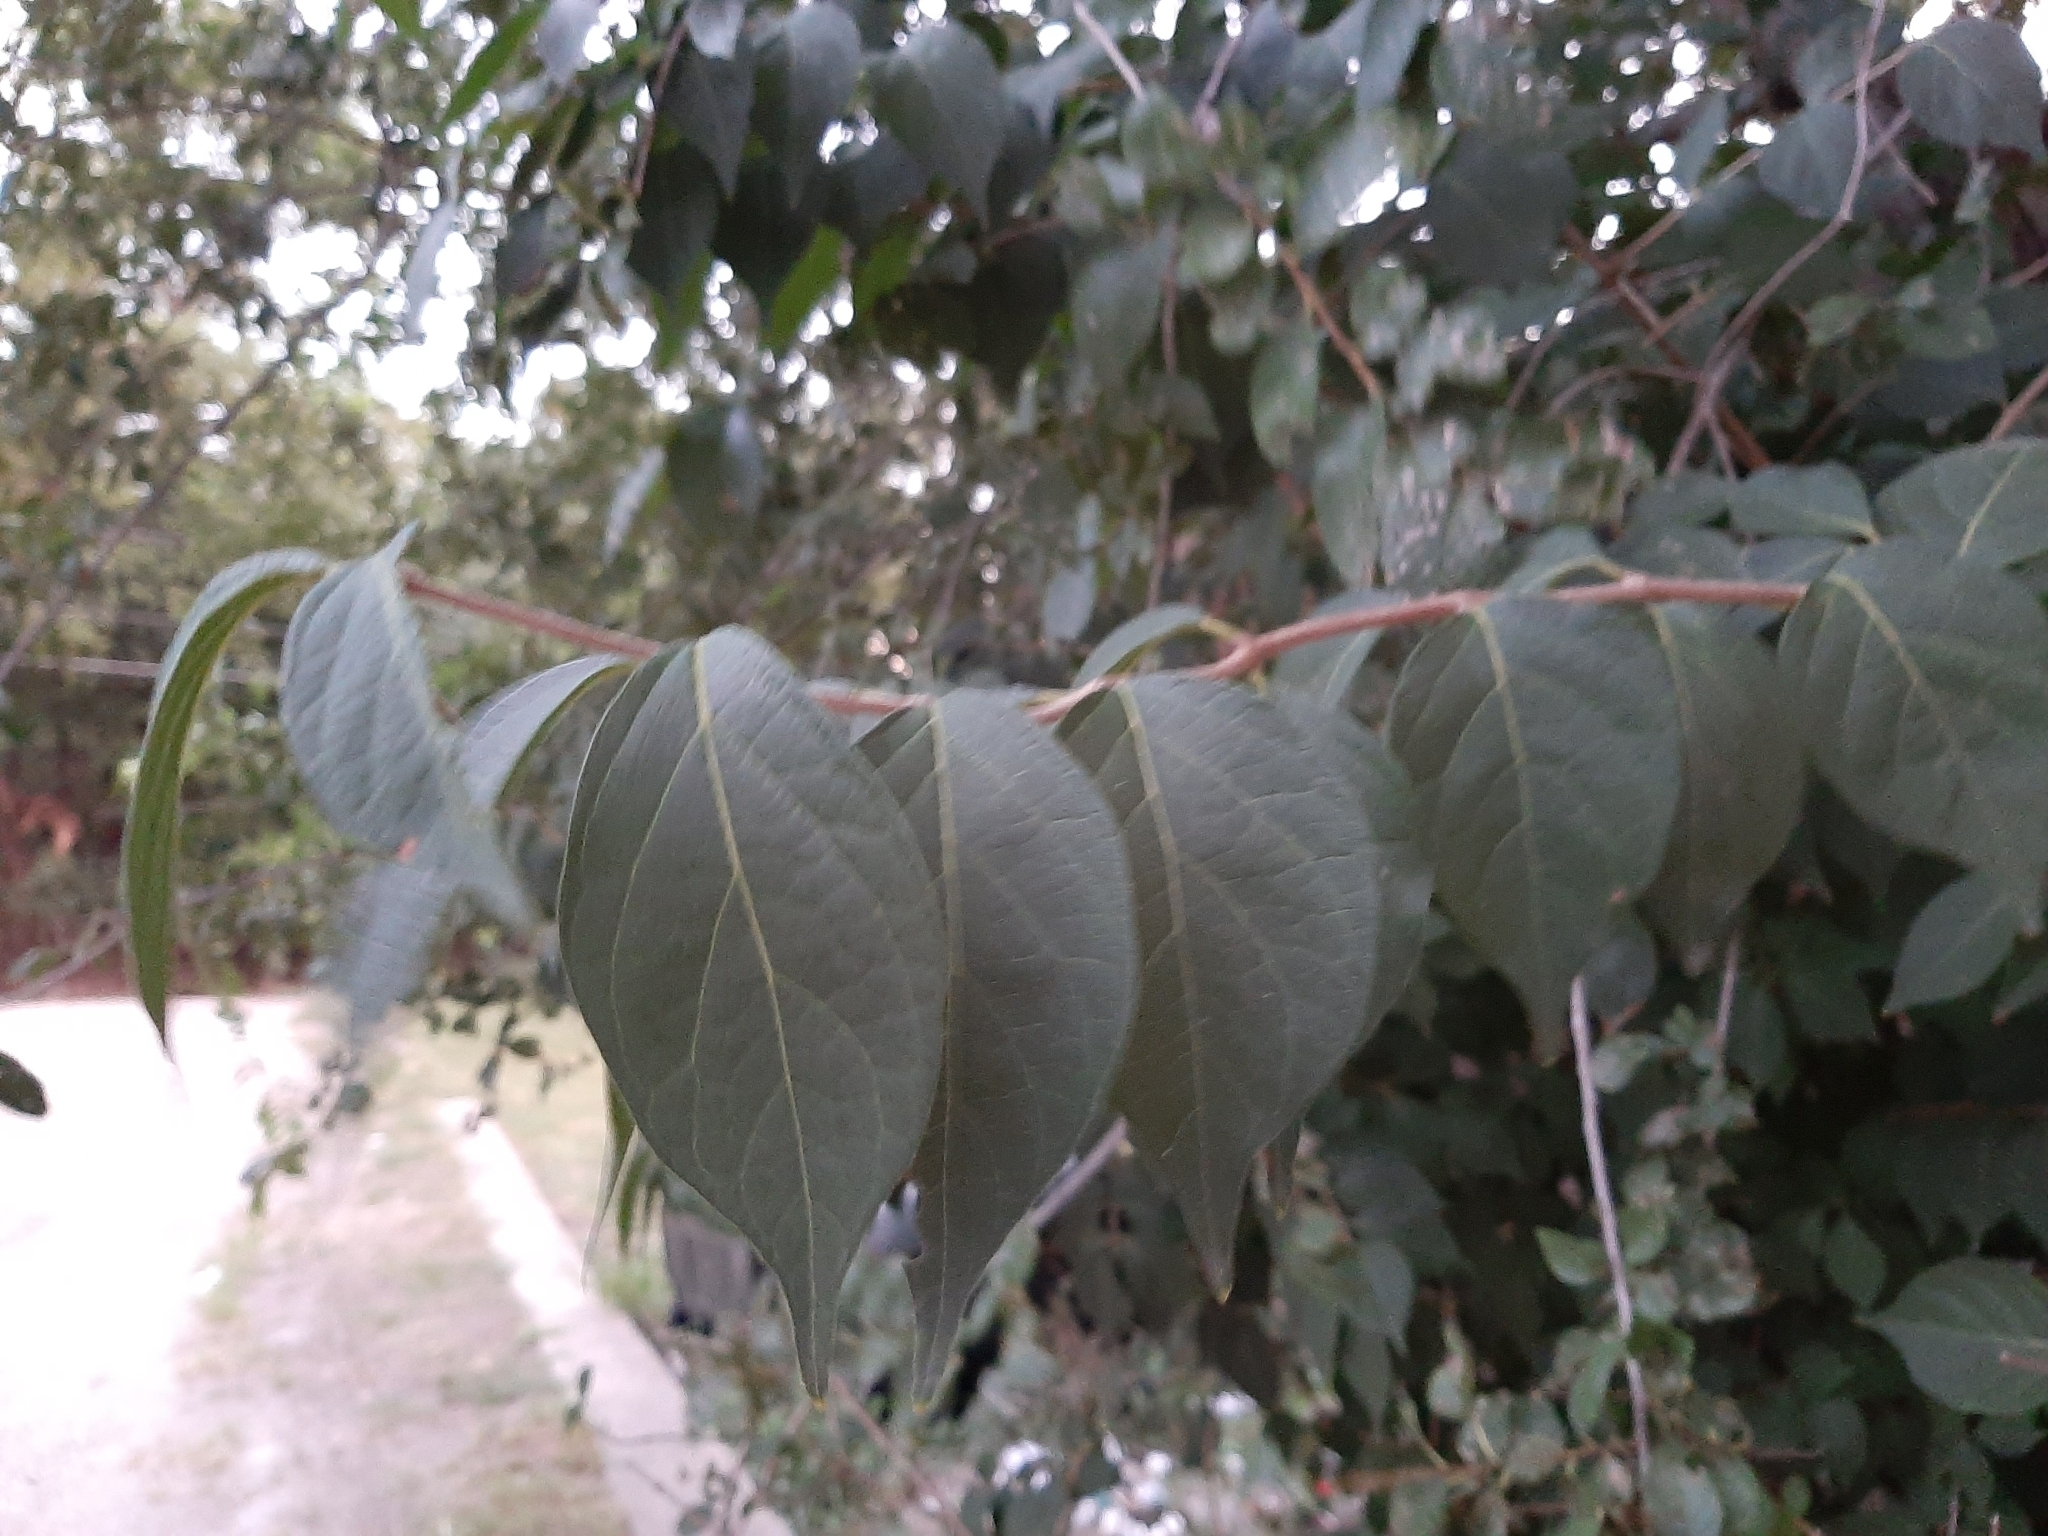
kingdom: Plantae
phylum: Tracheophyta
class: Magnoliopsida
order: Dipsacales
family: Caprifoliaceae
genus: Lonicera
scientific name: Lonicera maackii
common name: Amur honeysuckle
